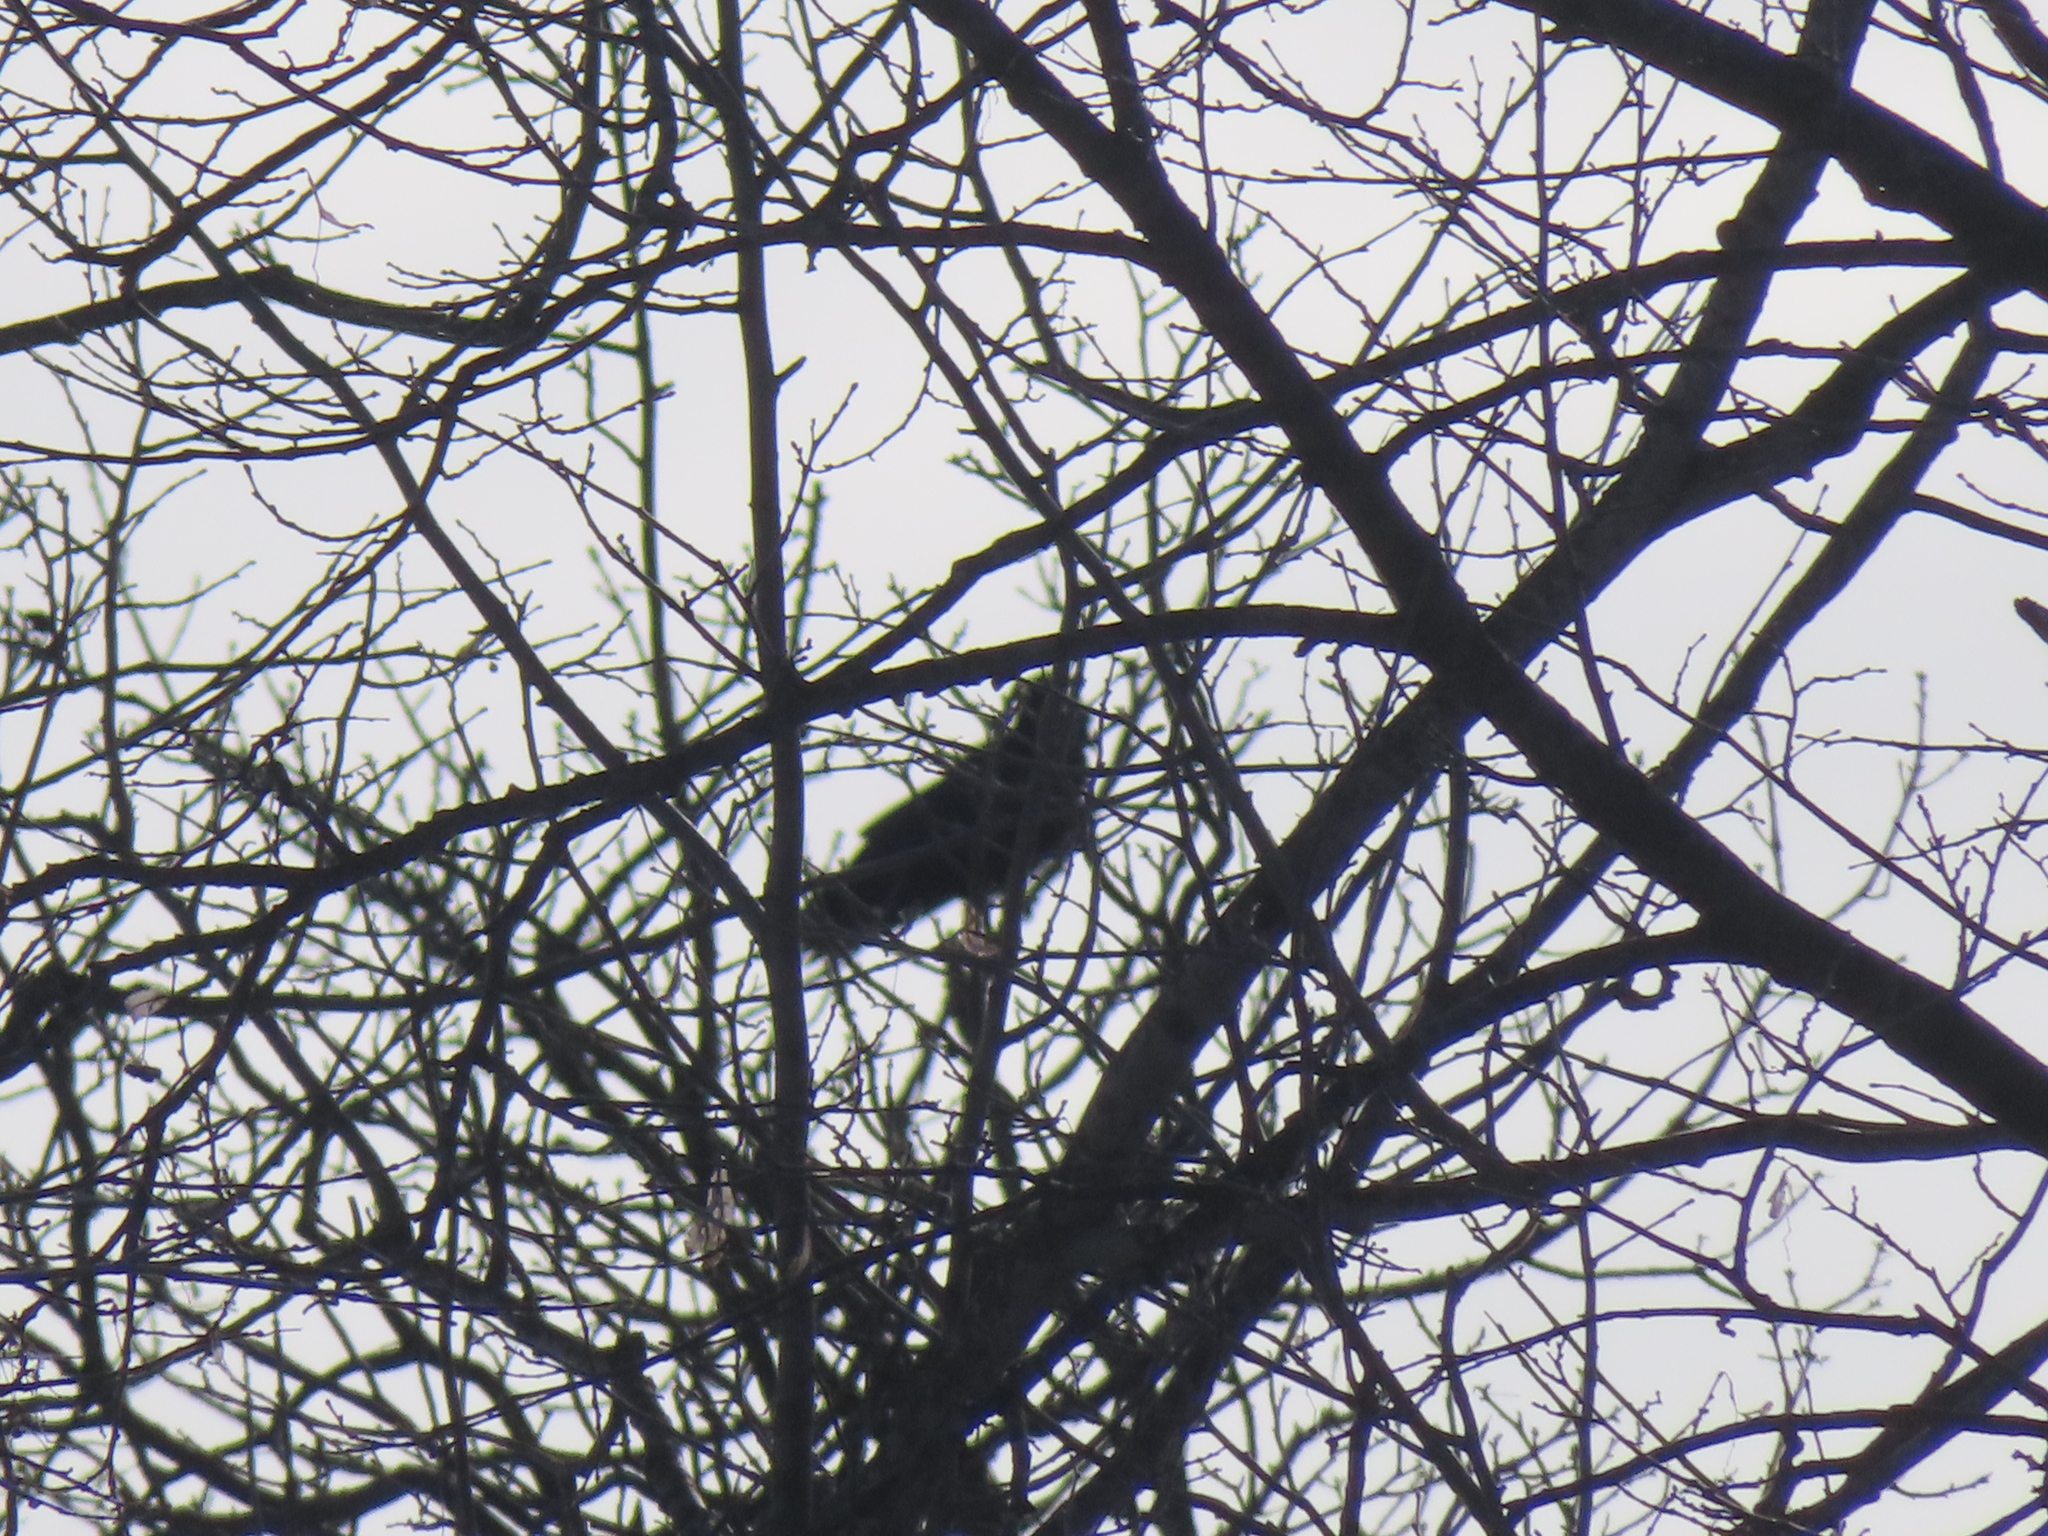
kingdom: Animalia
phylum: Chordata
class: Aves
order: Passeriformes
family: Corvidae
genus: Corvus
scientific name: Corvus brachyrhynchos
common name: American crow
